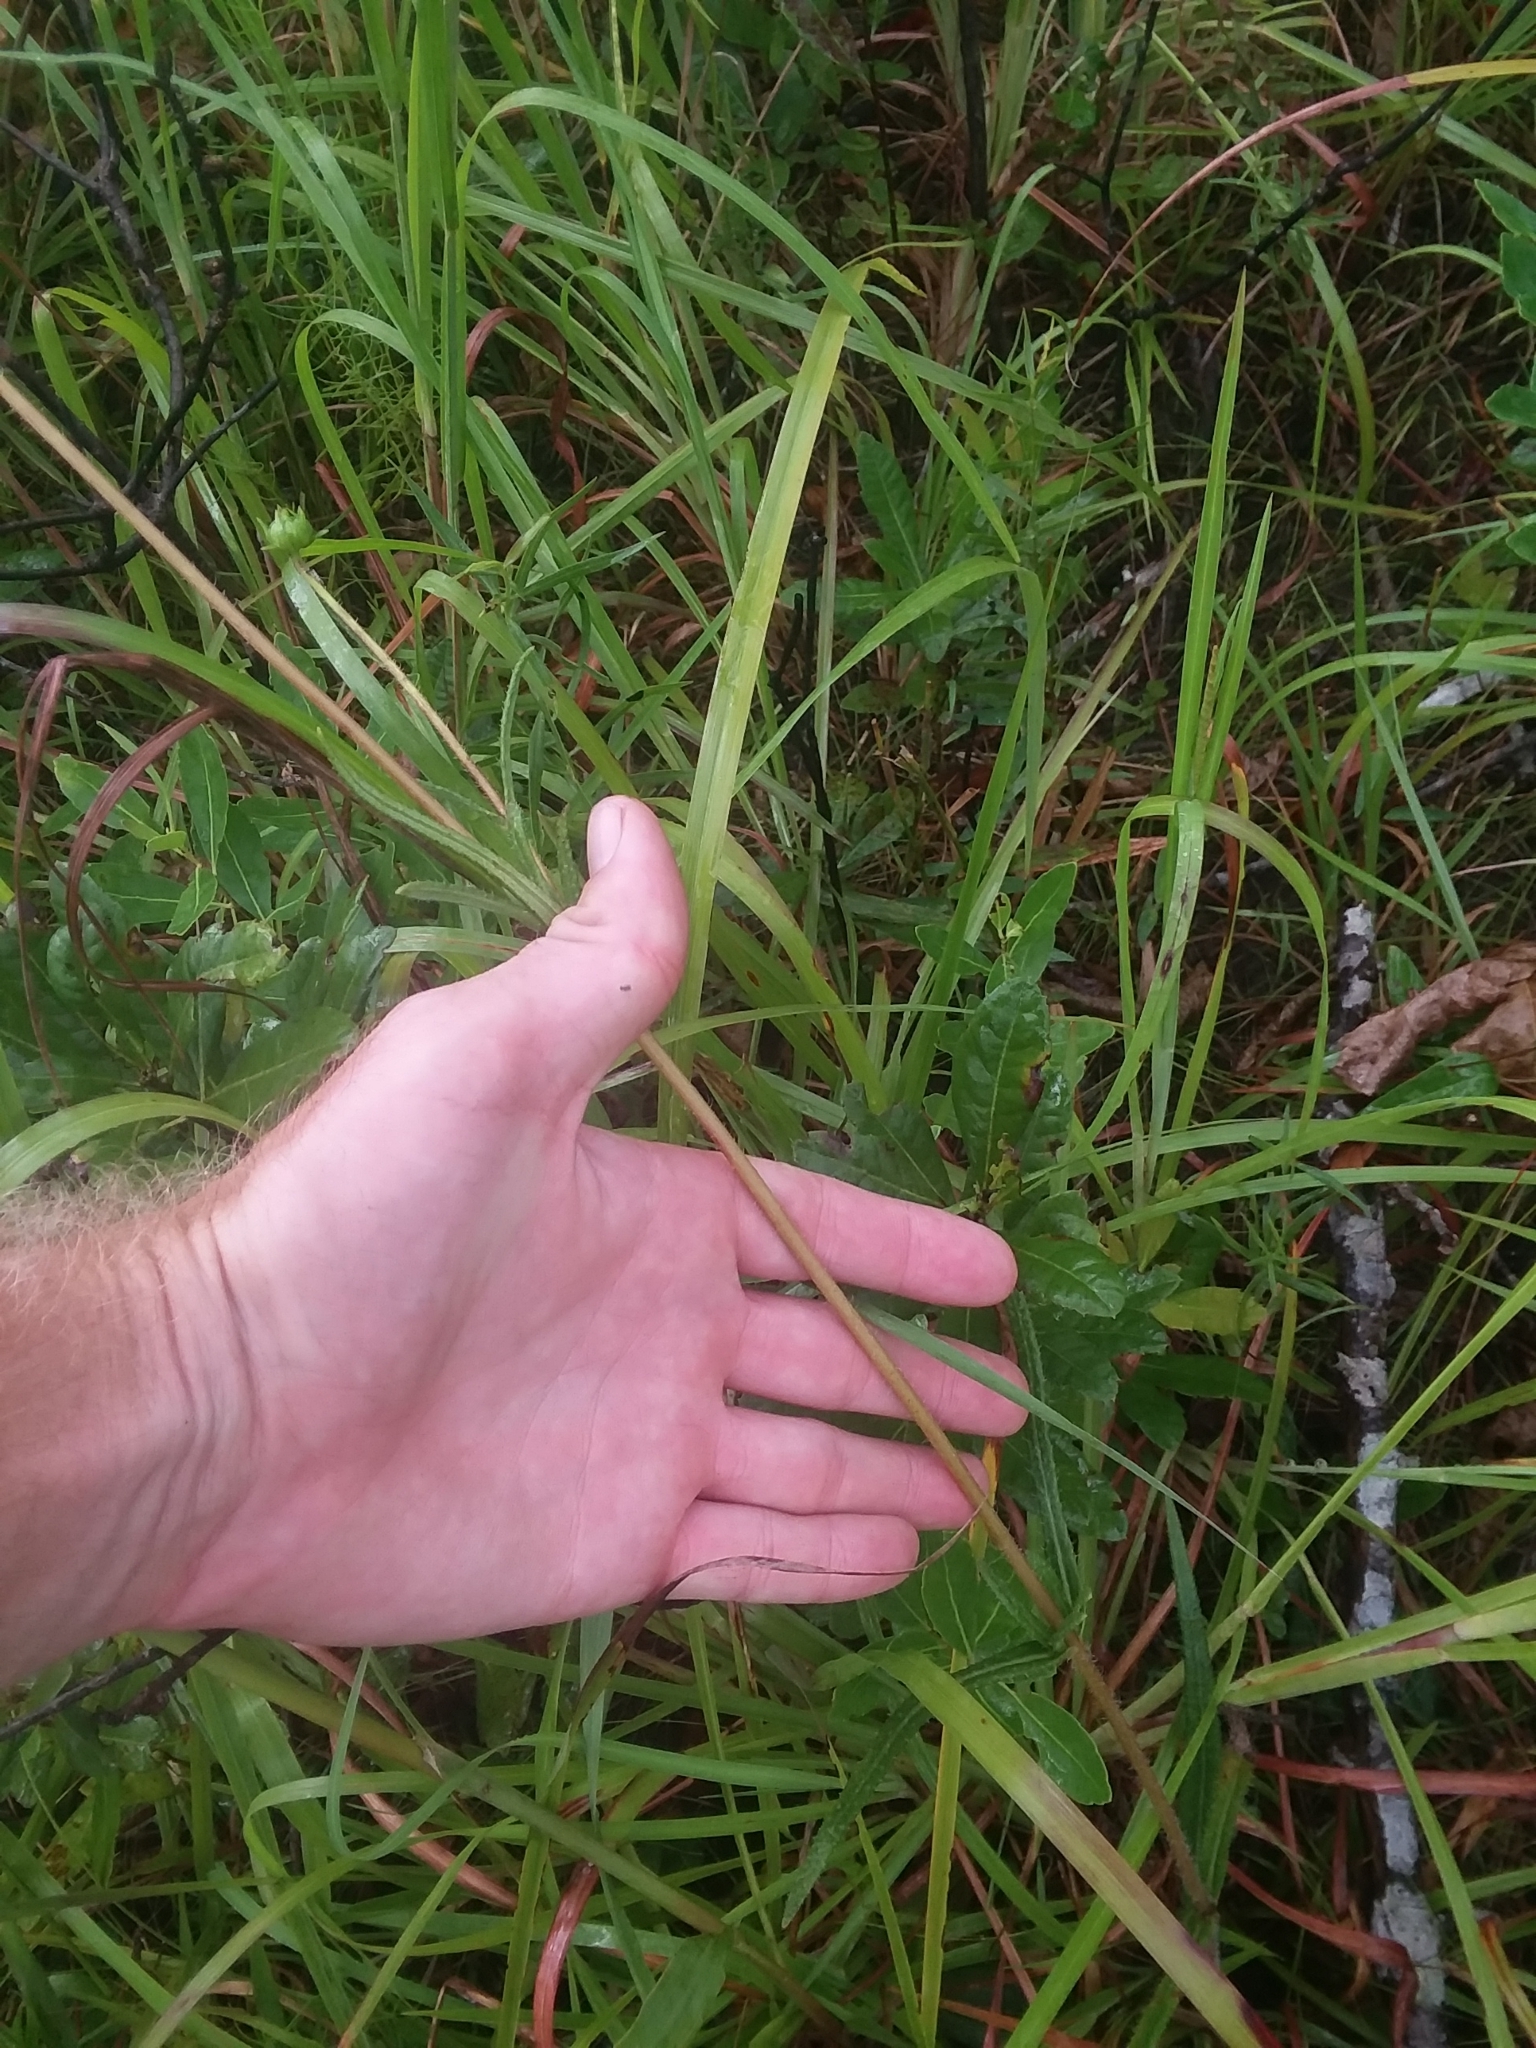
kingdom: Plantae
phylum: Tracheophyta
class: Magnoliopsida
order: Asterales
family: Asteraceae
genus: Helianthus
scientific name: Helianthus heterophyllus
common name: Wetland sunflower
